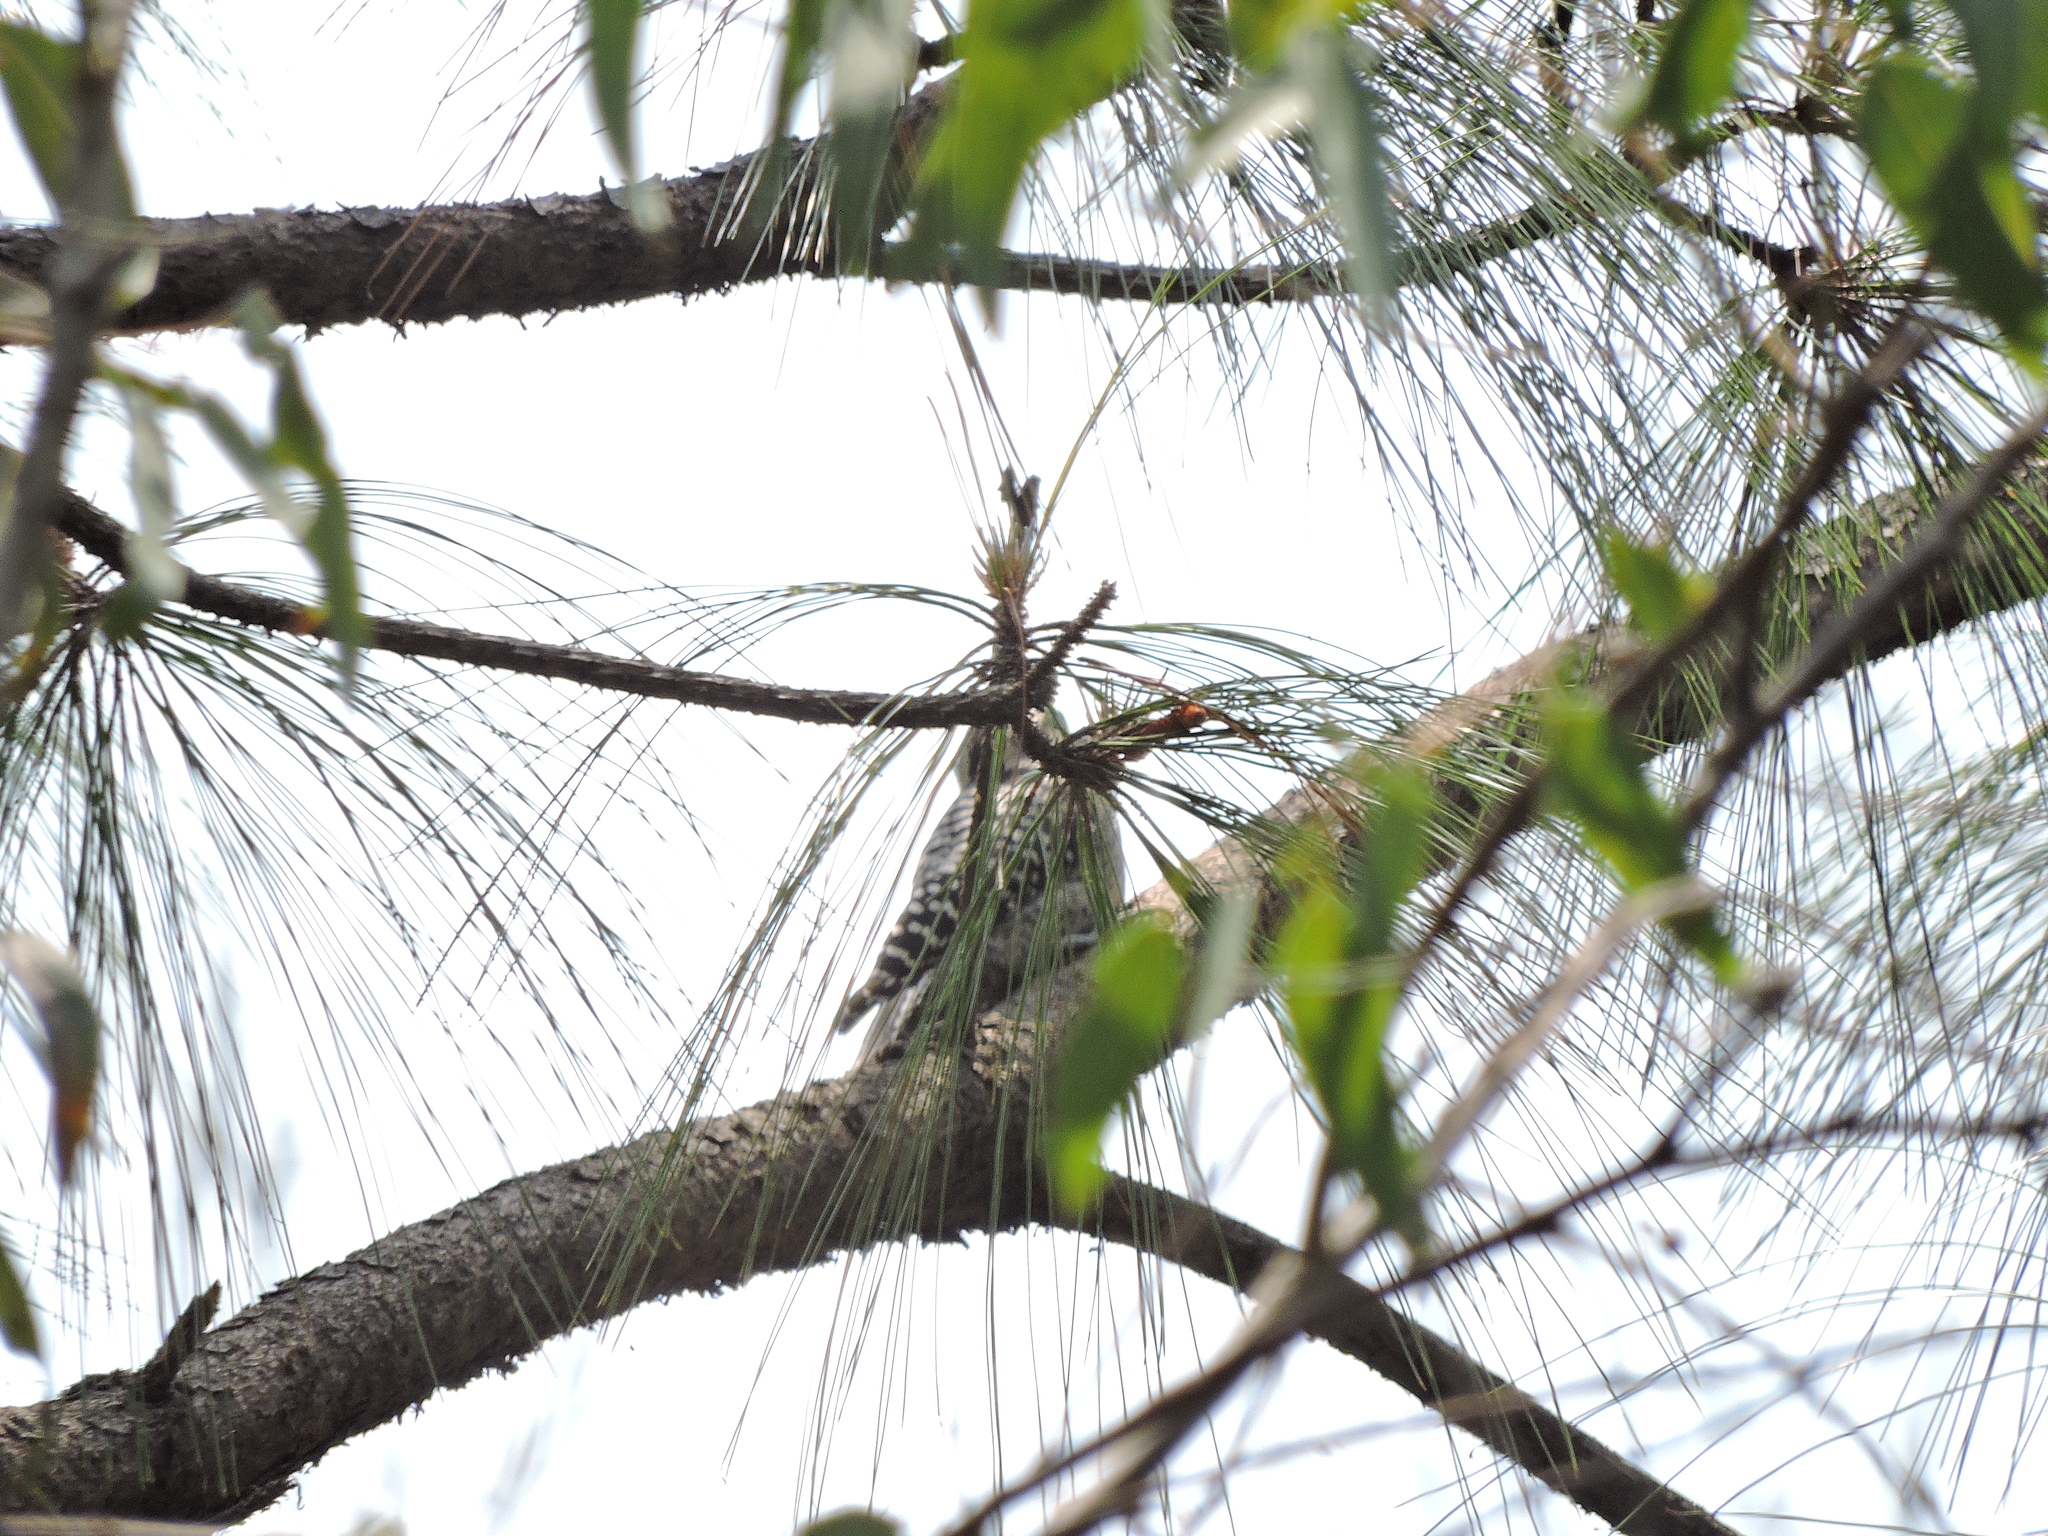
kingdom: Animalia
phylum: Chordata
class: Aves
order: Piciformes
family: Picidae
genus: Dryobates
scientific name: Dryobates scalaris
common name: Ladder-backed woodpecker
